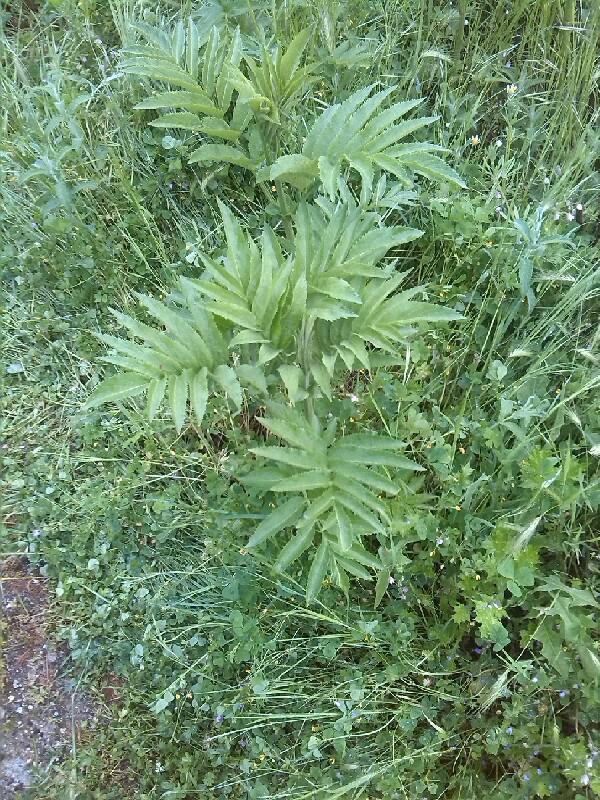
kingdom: Plantae
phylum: Tracheophyta
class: Magnoliopsida
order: Dipsacales
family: Viburnaceae
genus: Sambucus
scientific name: Sambucus ebulus
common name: Dwarf elder
